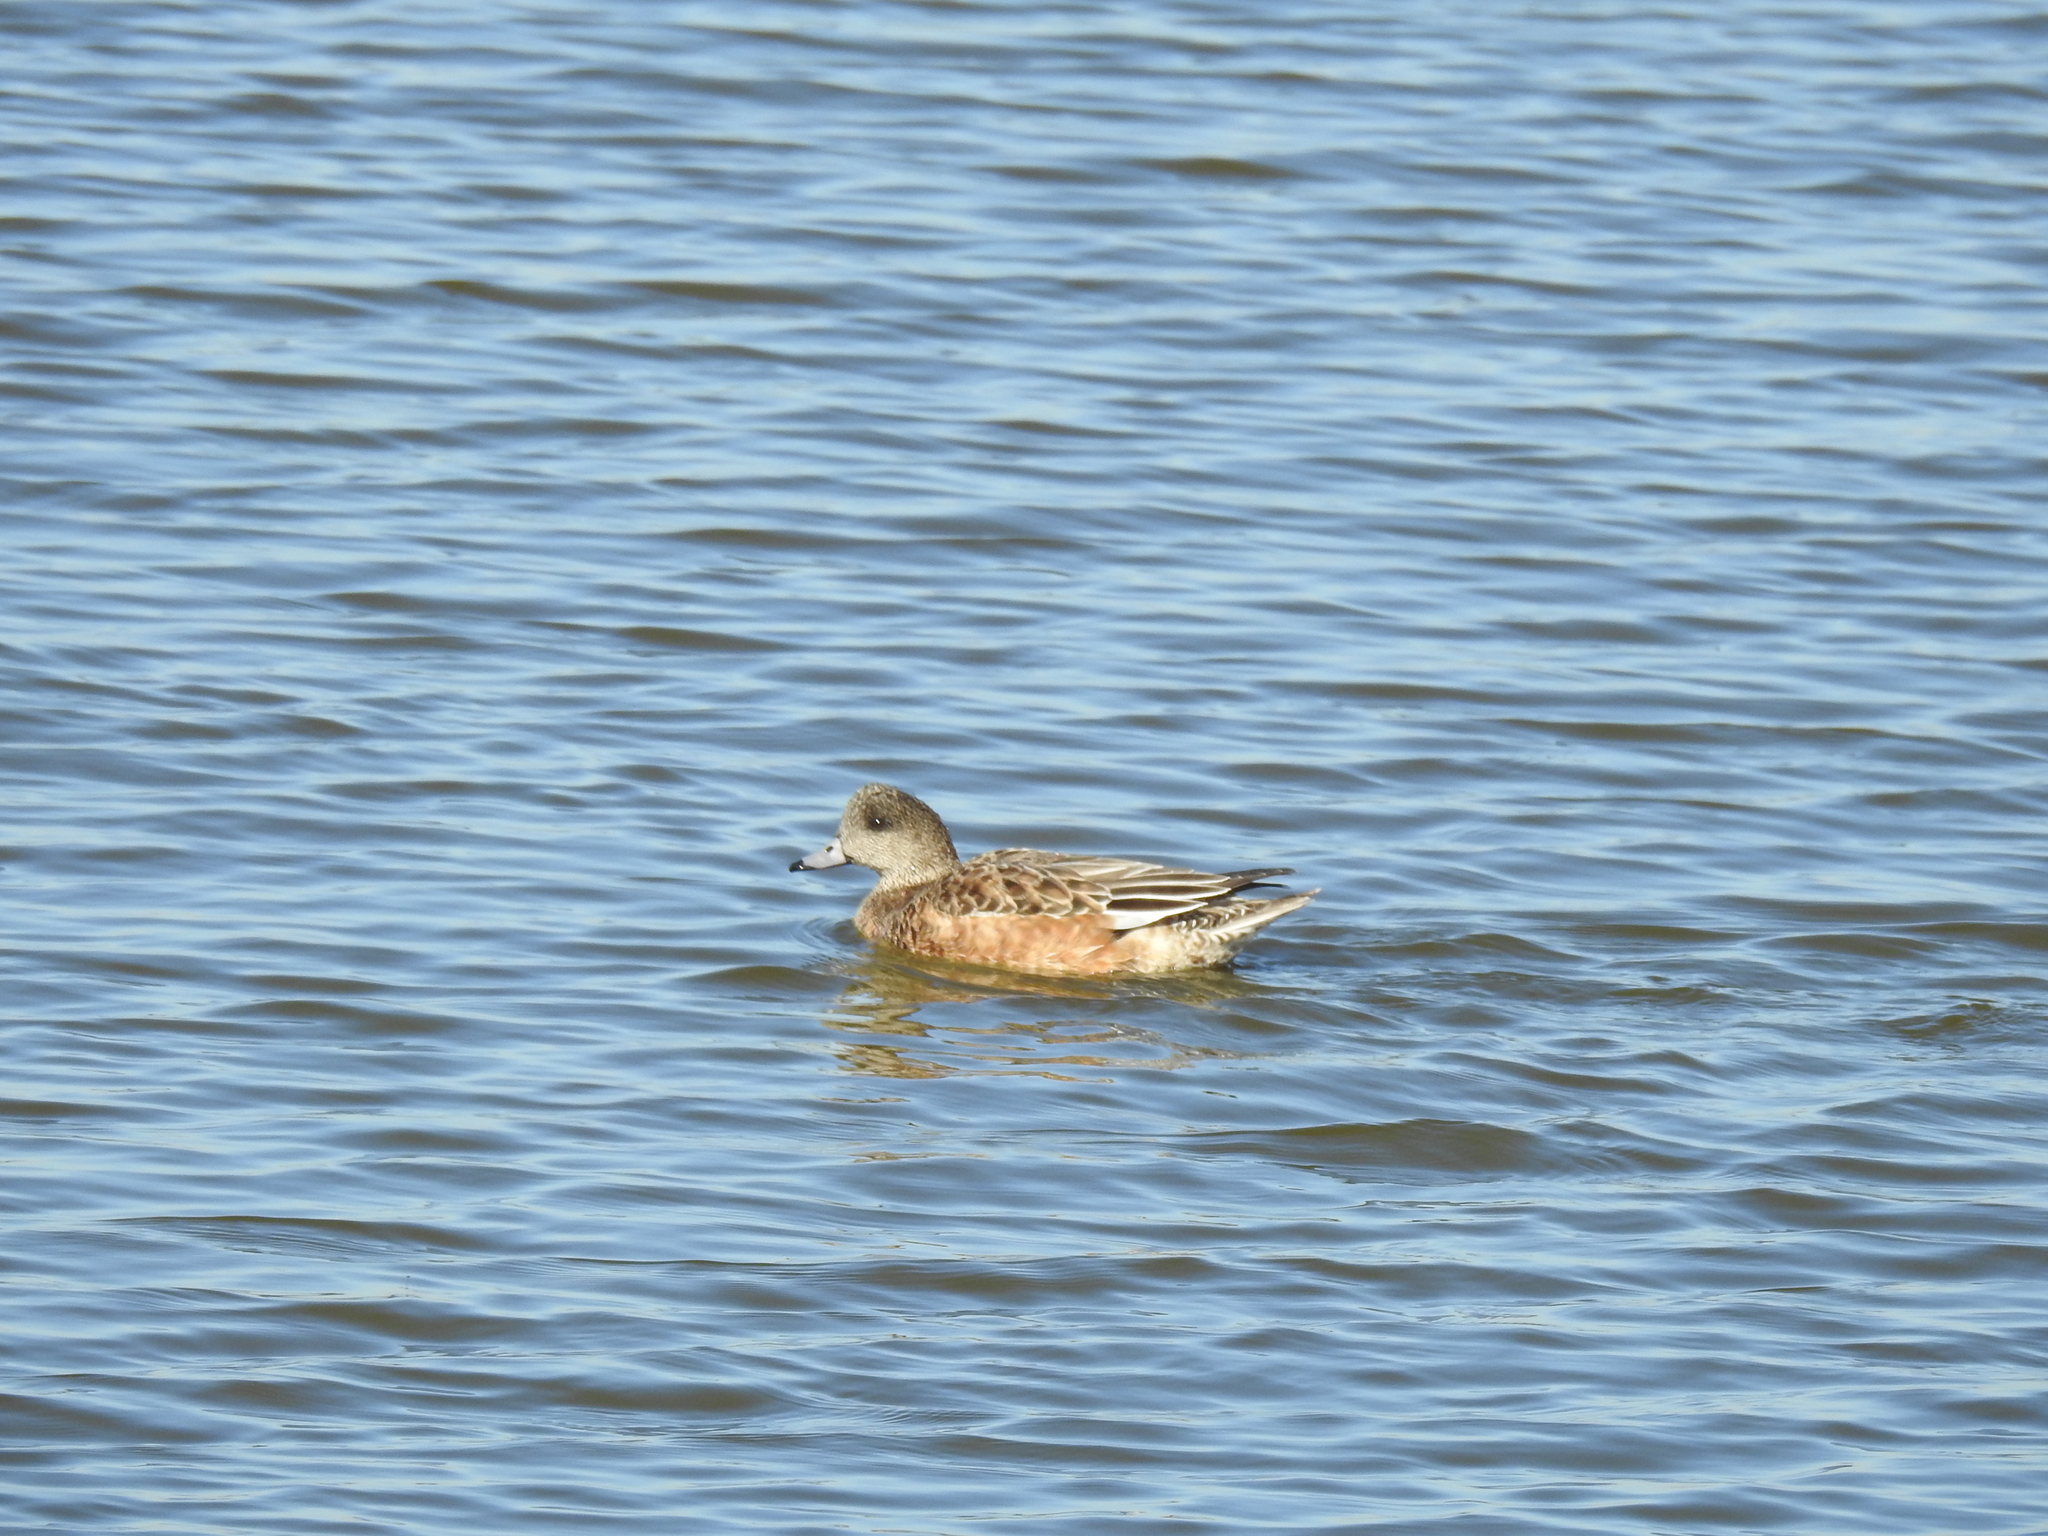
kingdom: Animalia
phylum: Chordata
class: Aves
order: Anseriformes
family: Anatidae
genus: Mareca
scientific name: Mareca americana
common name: American wigeon
